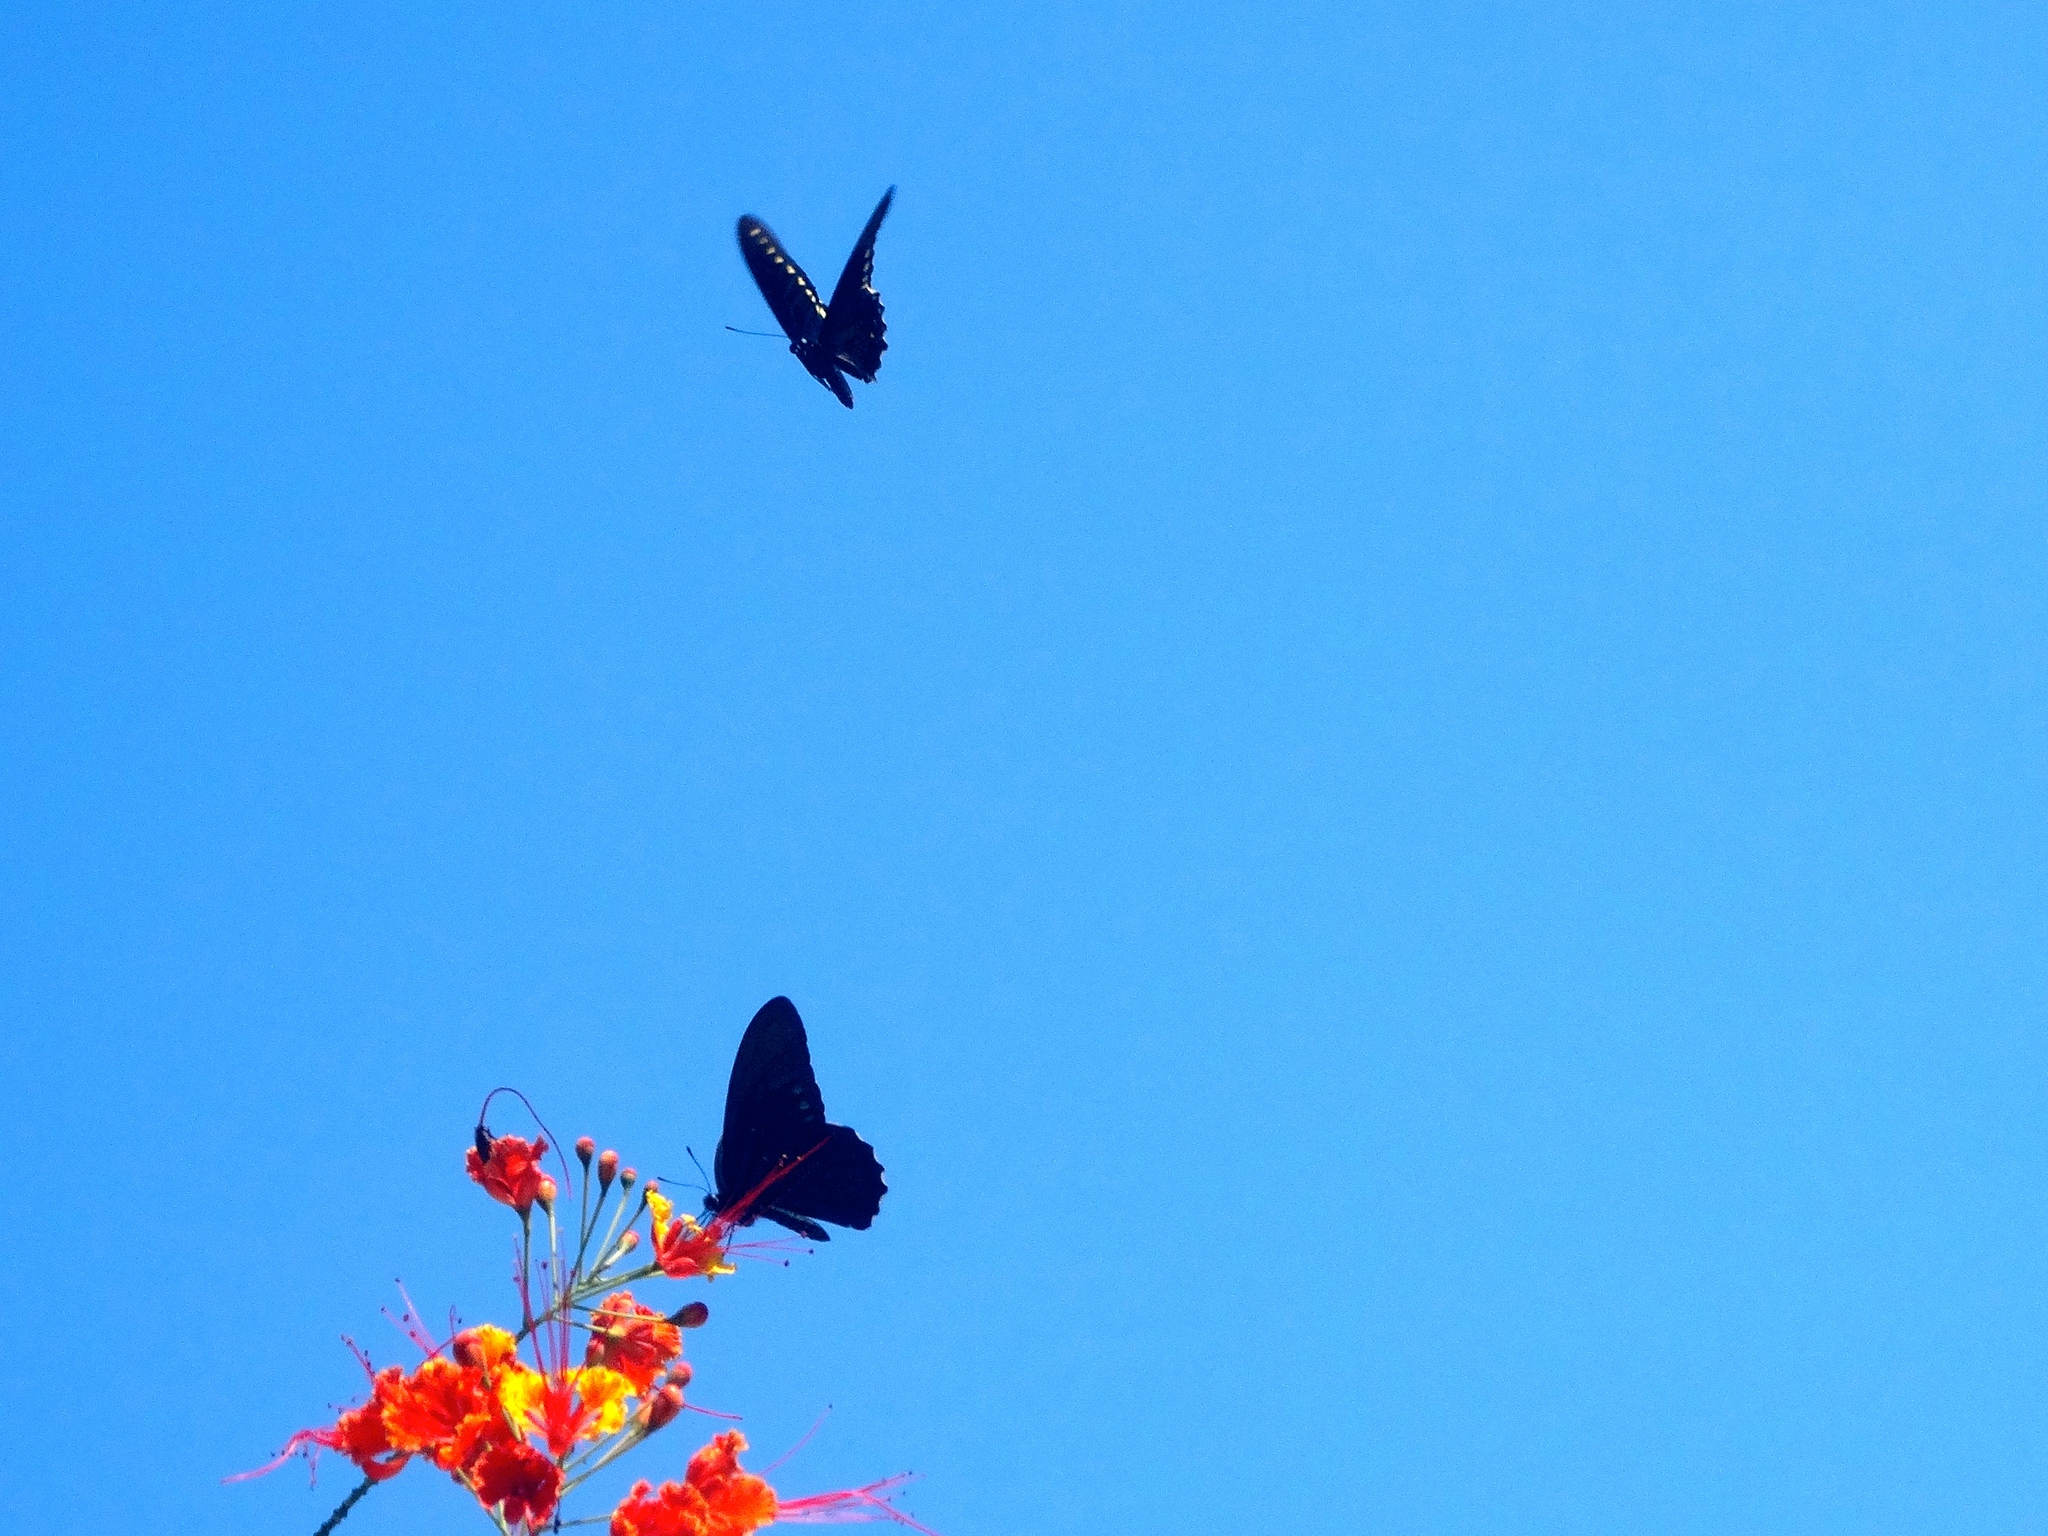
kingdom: Animalia
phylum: Arthropoda
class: Insecta
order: Lepidoptera
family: Papilionidae
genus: Battus
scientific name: Battus polydamas
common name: Polydamas swallowtail
